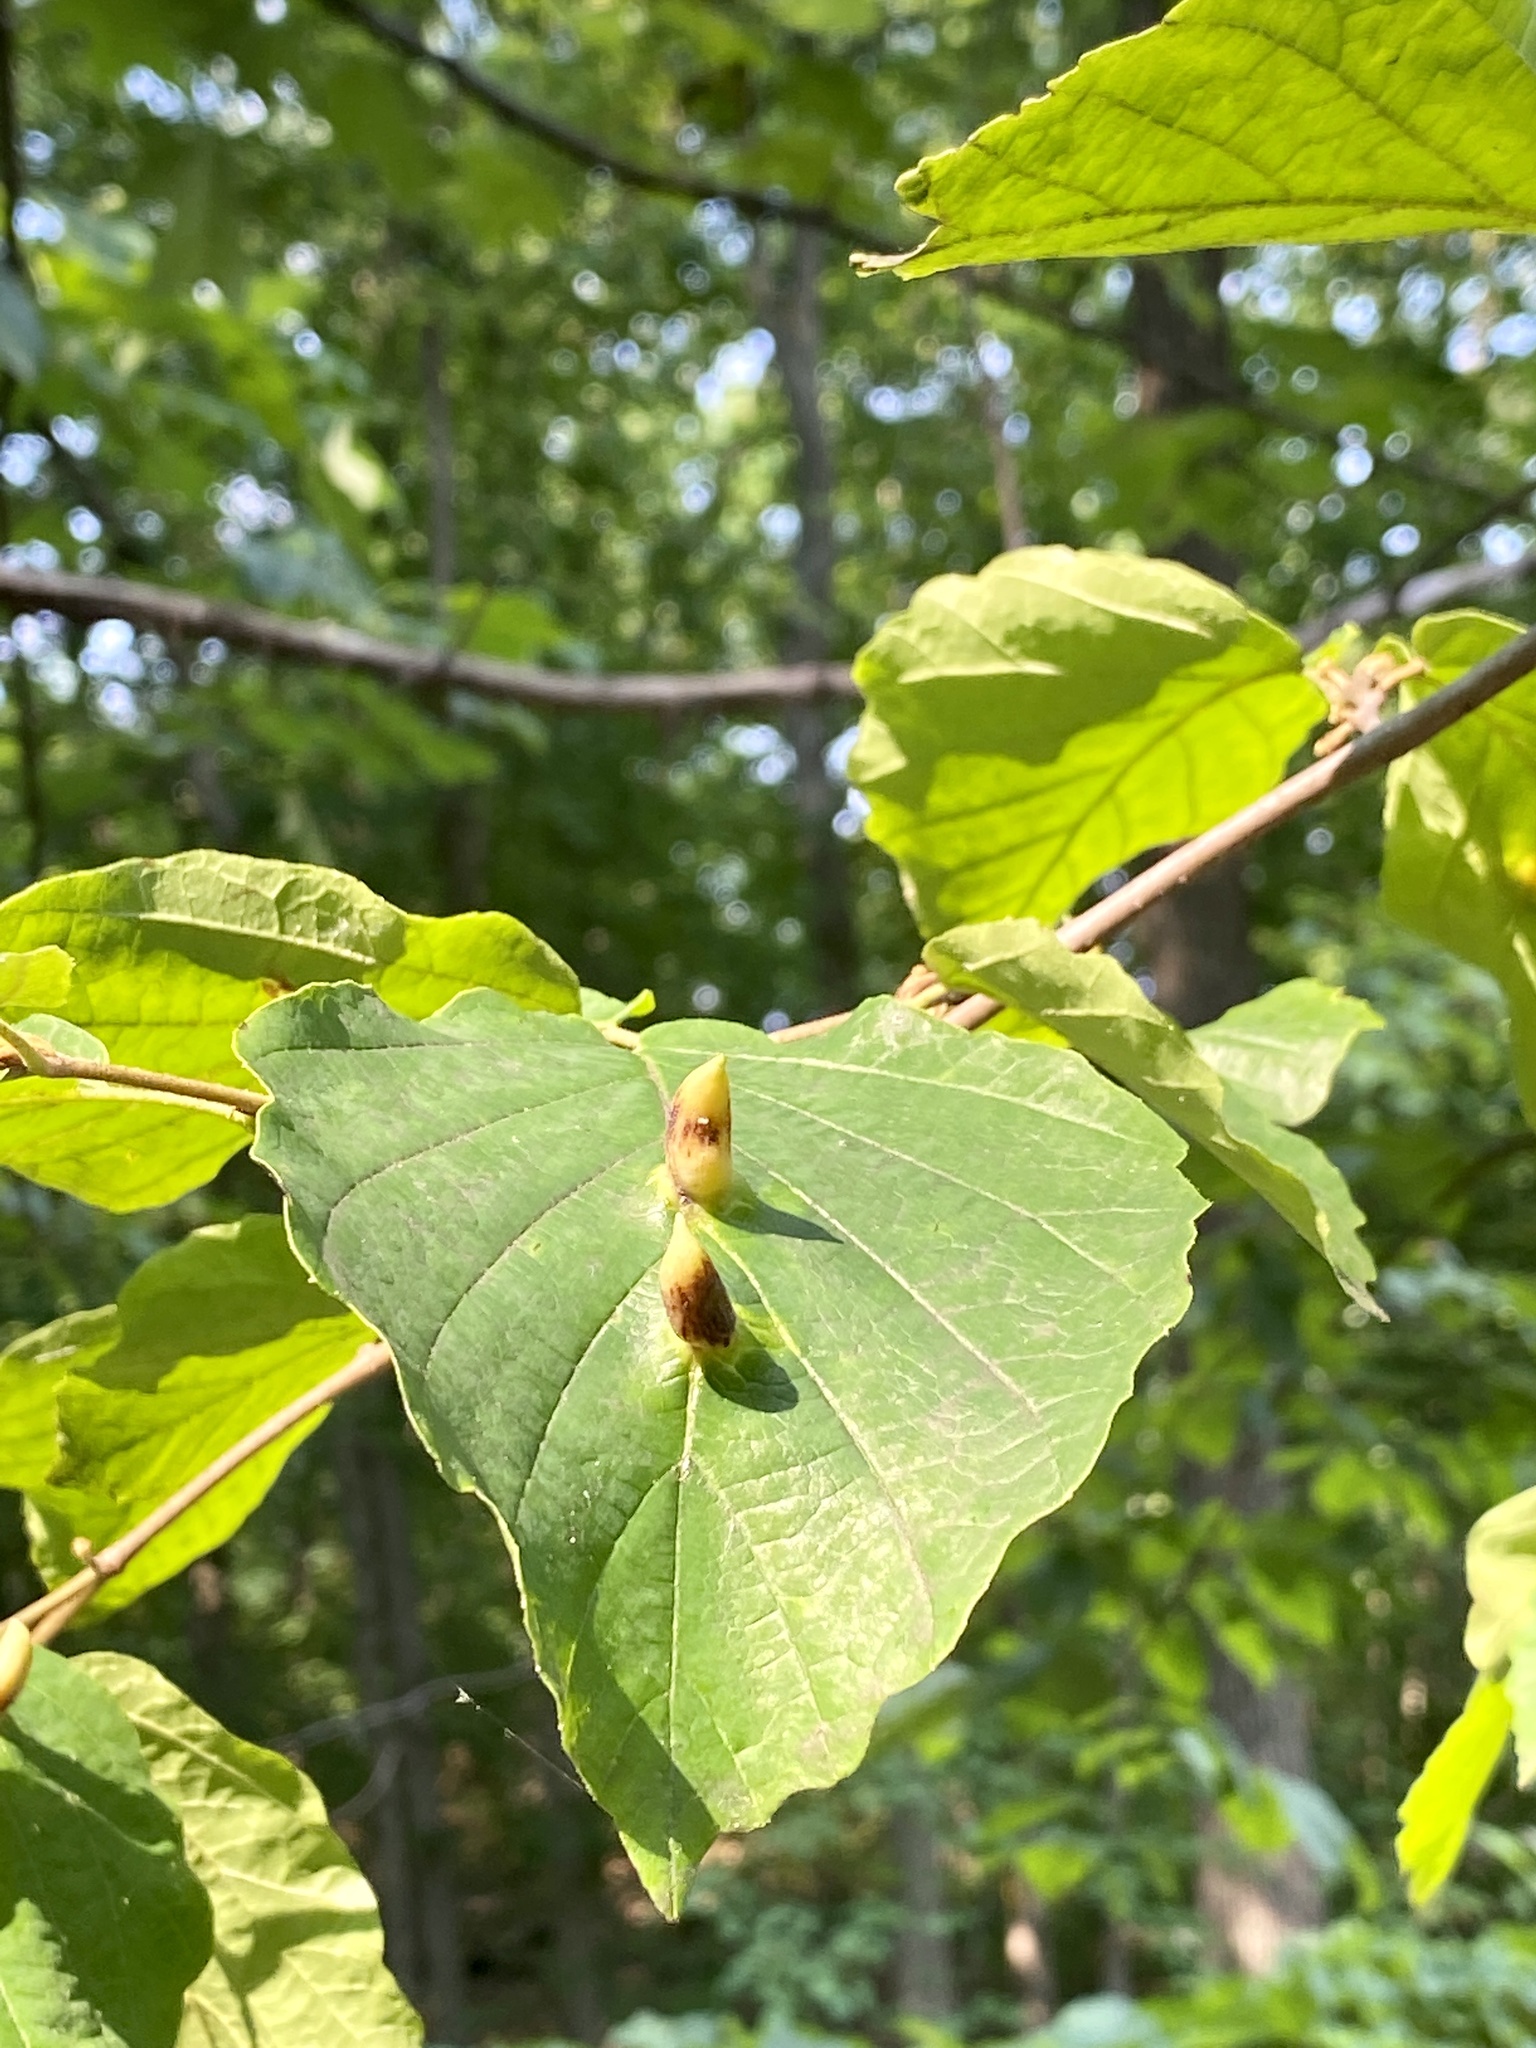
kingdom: Animalia
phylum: Arthropoda
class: Insecta
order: Hemiptera
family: Aphididae
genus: Hormaphis
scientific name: Hormaphis hamamelidis
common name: Witch-hazel cone gall aphid
